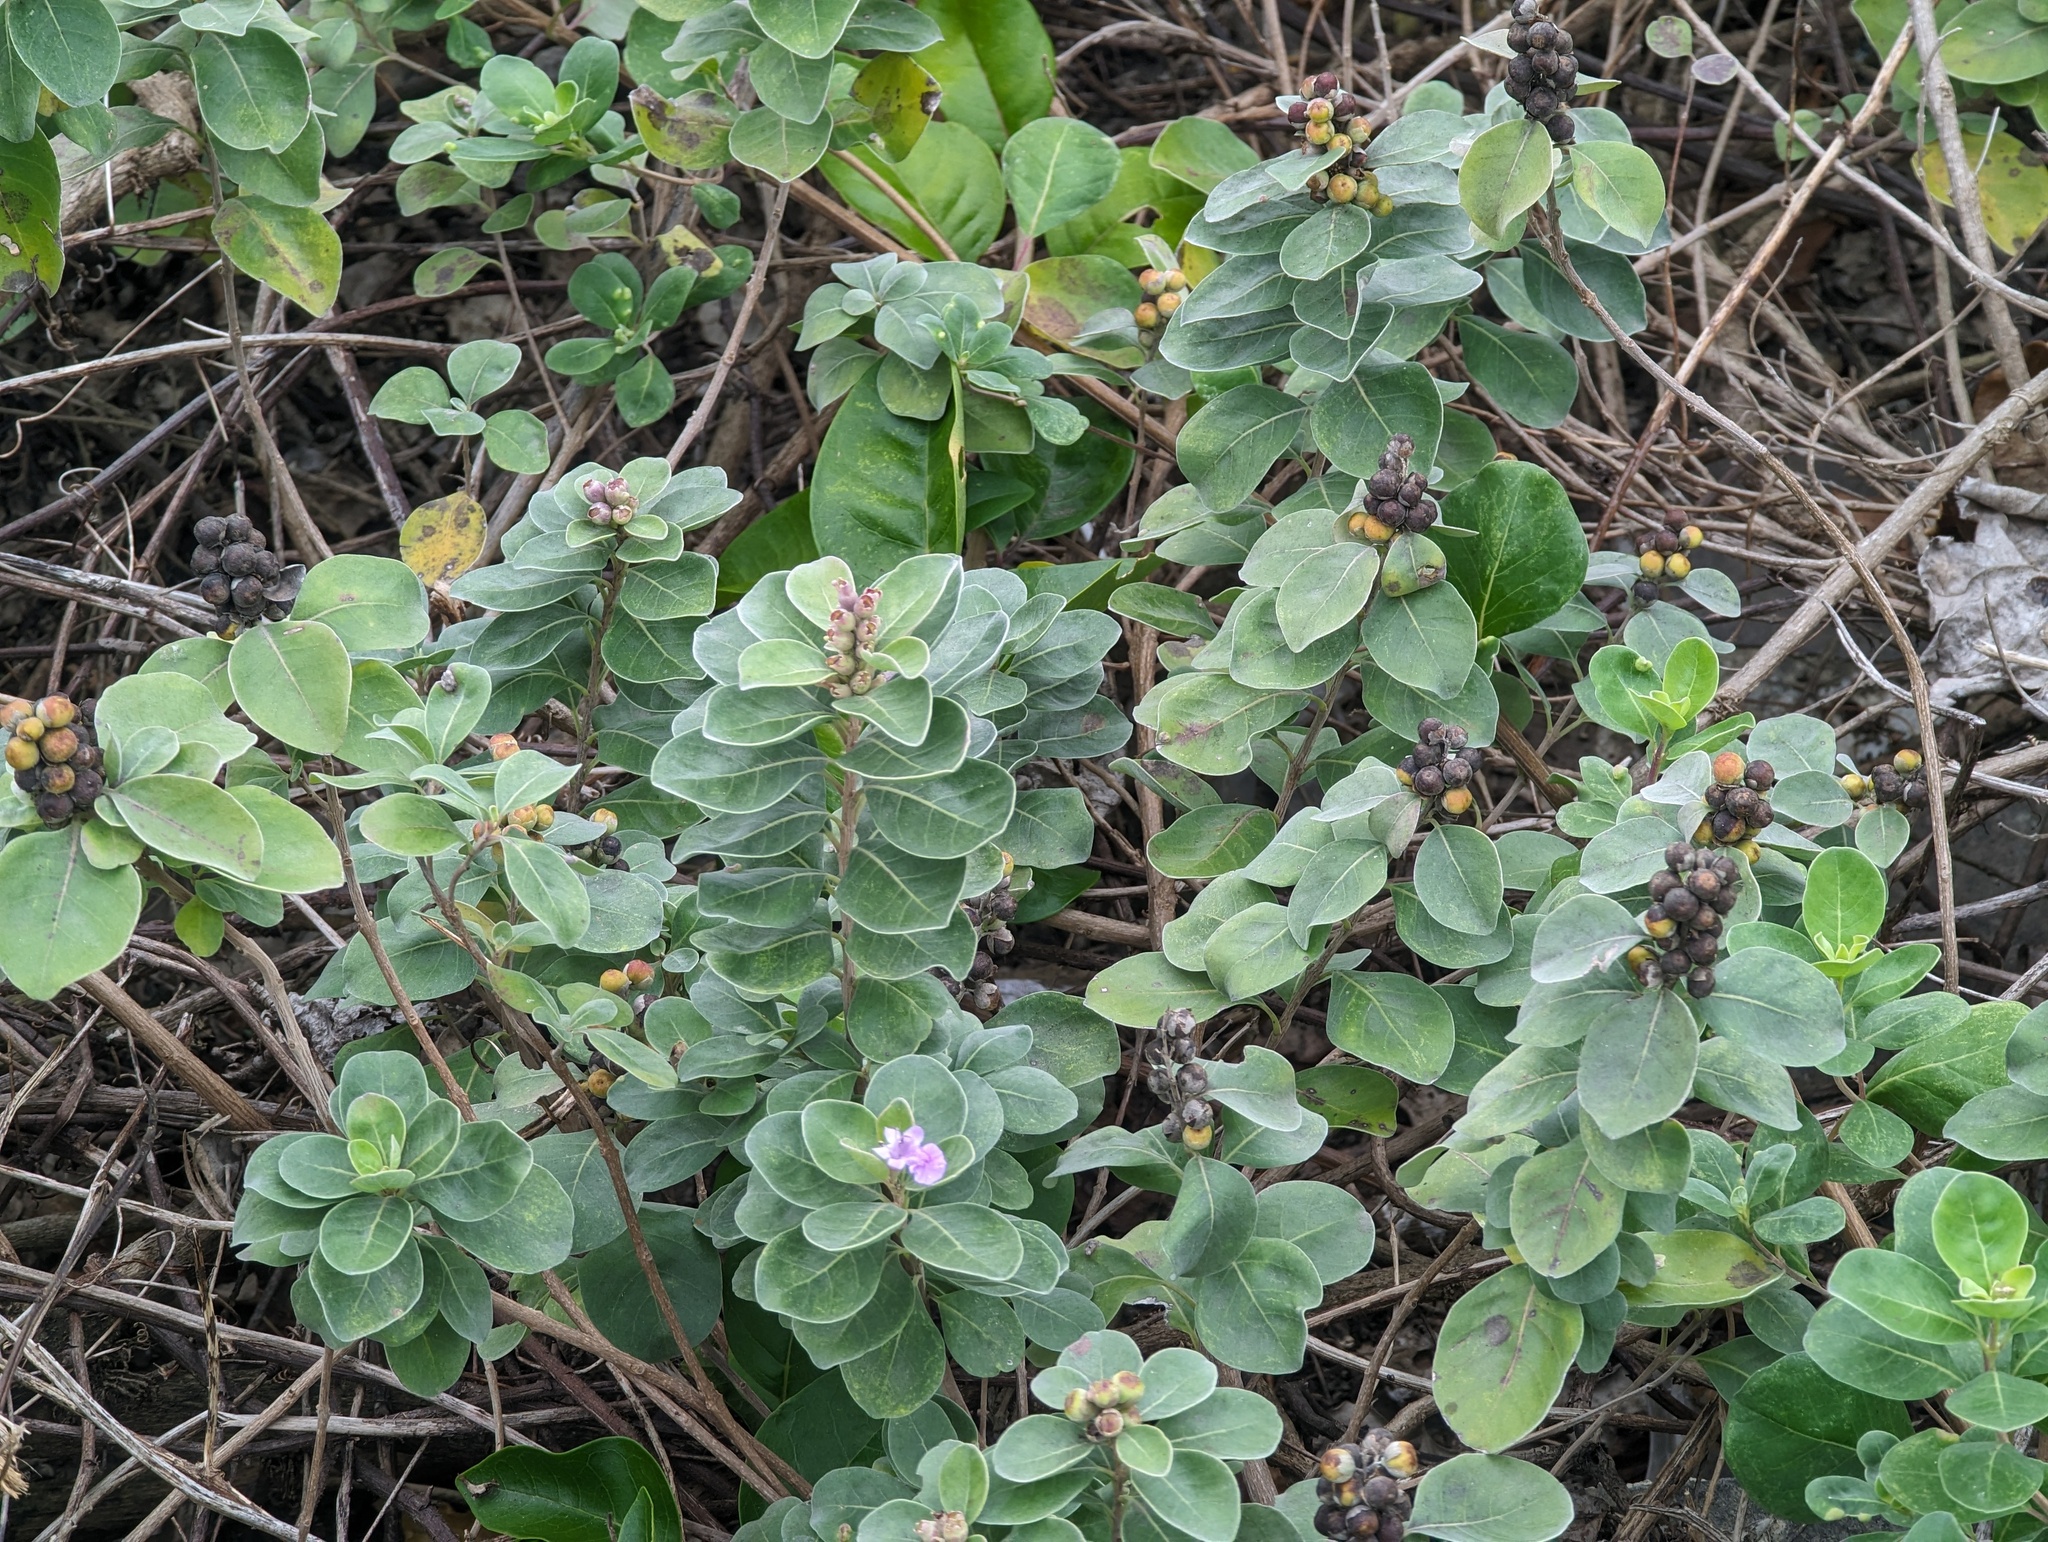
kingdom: Plantae
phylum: Tracheophyta
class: Magnoliopsida
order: Lamiales
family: Lamiaceae
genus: Vitex
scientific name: Vitex rotundifolia
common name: Beach vitex
